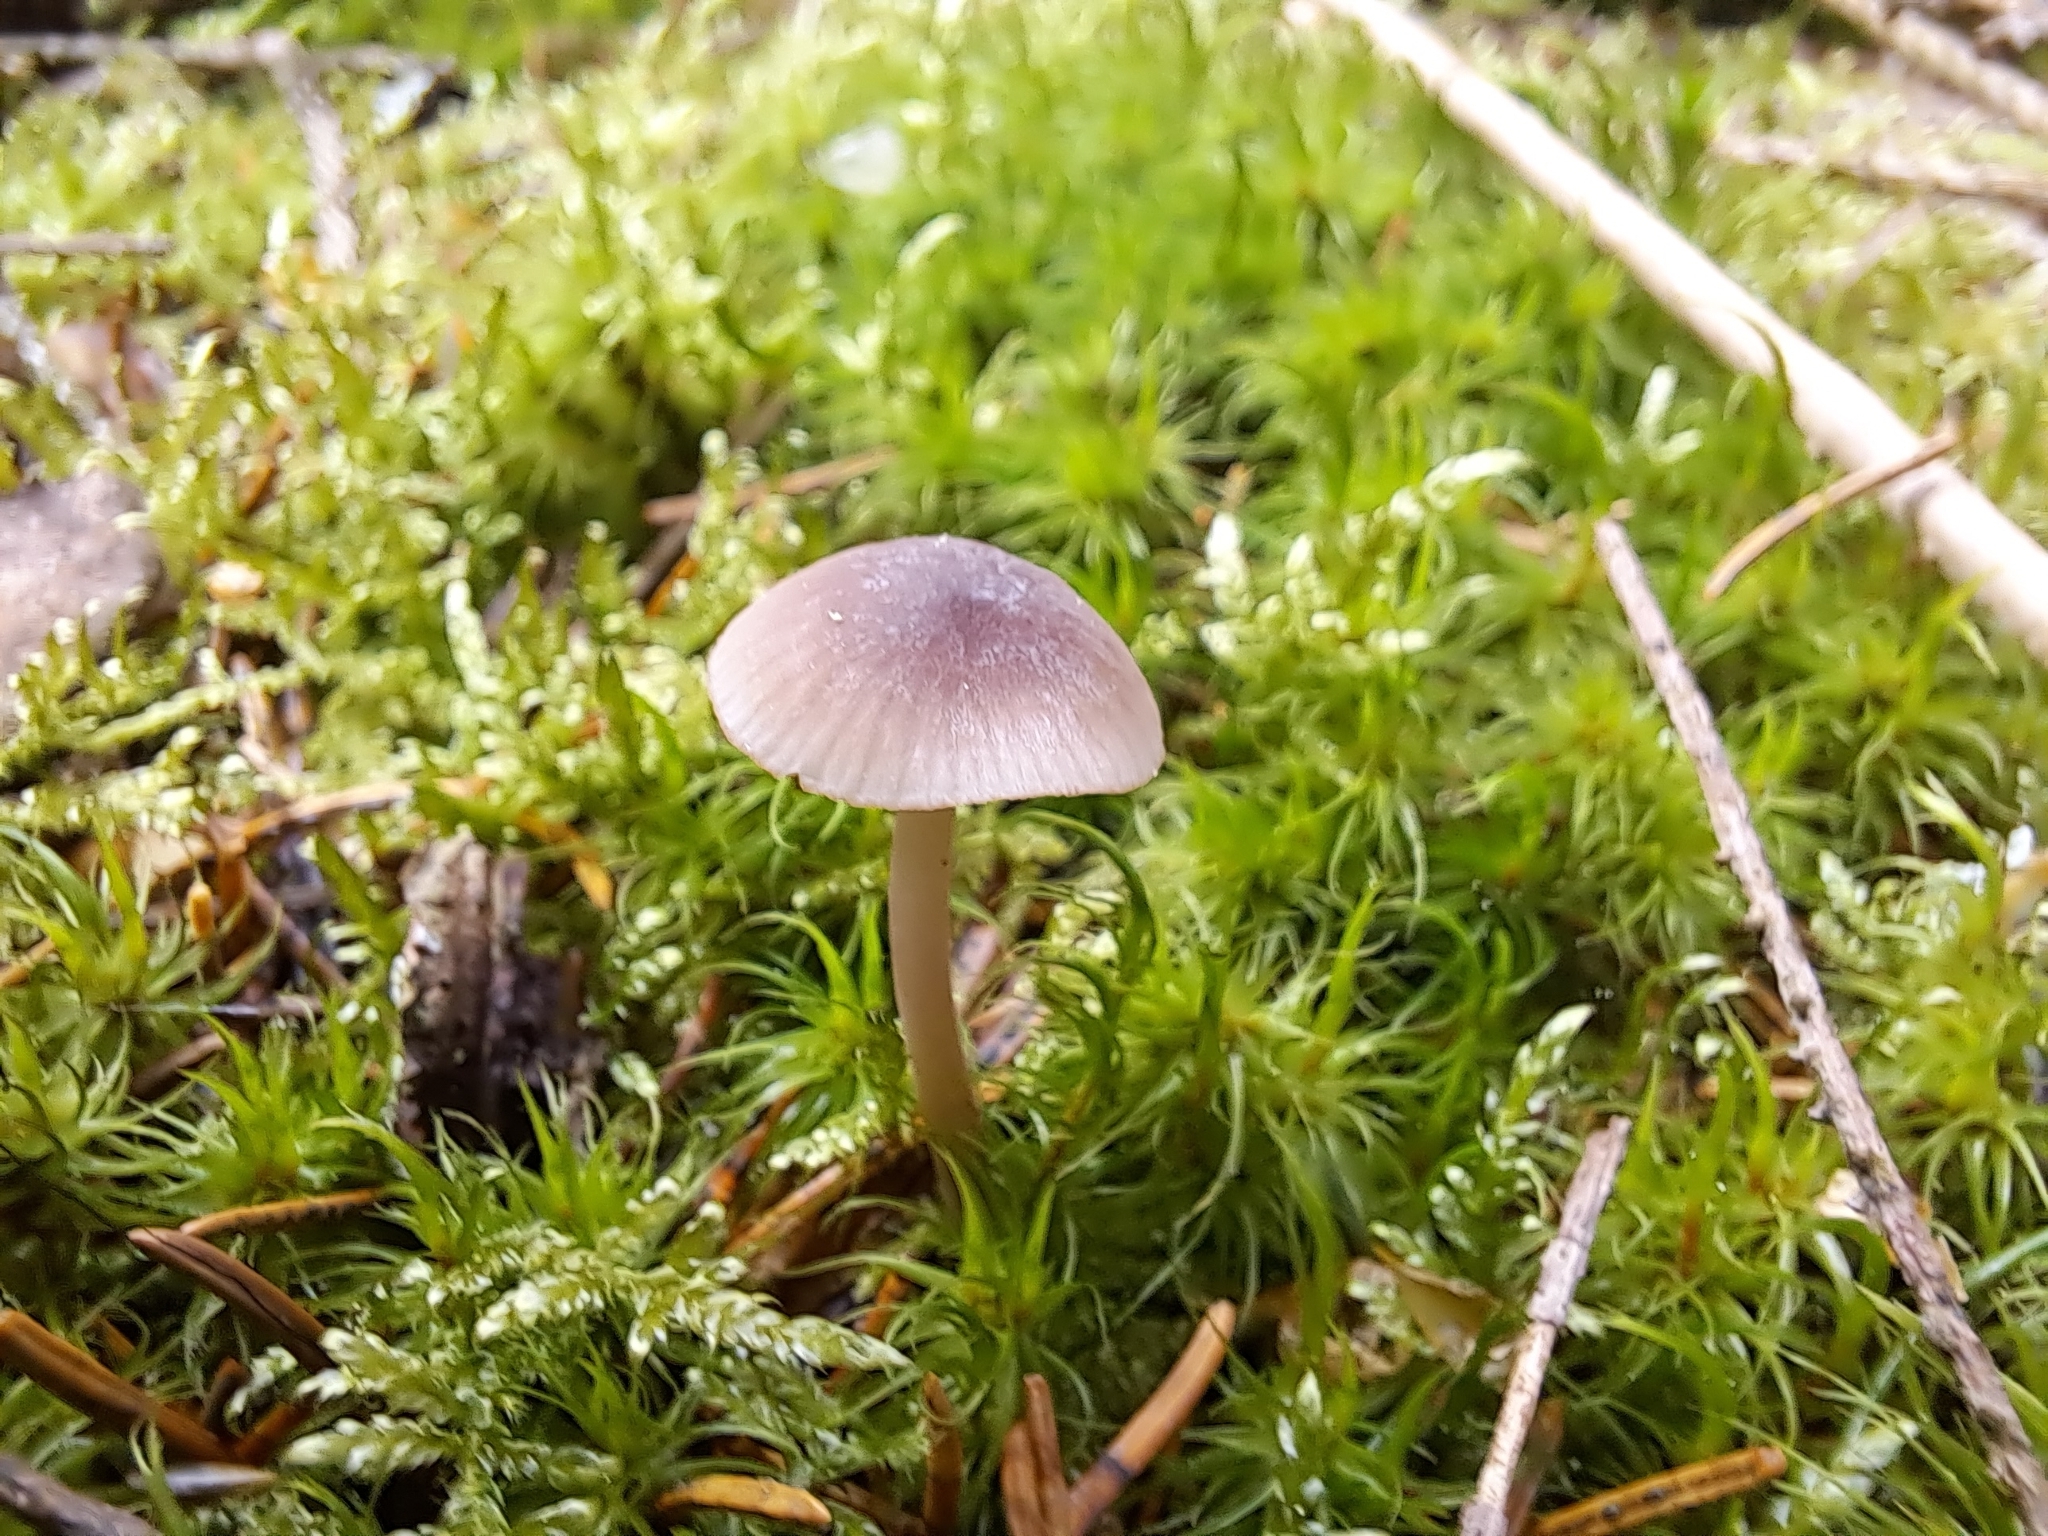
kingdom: Fungi
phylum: Basidiomycota
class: Agaricomycetes
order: Agaricales
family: Mycenaceae
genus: Mycena
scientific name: Mycena rubromarginata
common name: Red edge bonnet
